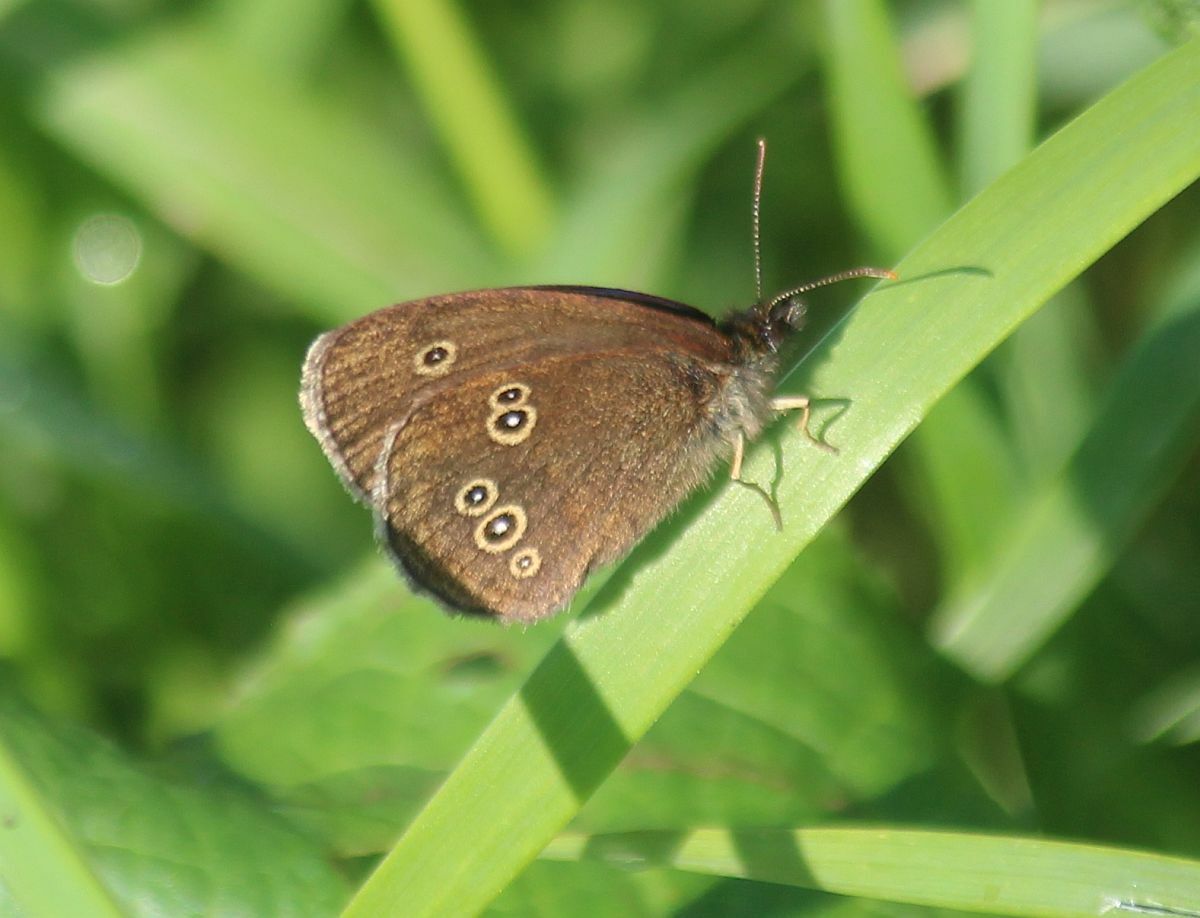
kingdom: Animalia
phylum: Arthropoda
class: Insecta
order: Lepidoptera
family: Nymphalidae
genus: Aphantopus
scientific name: Aphantopus hyperantus
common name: Ringlet
